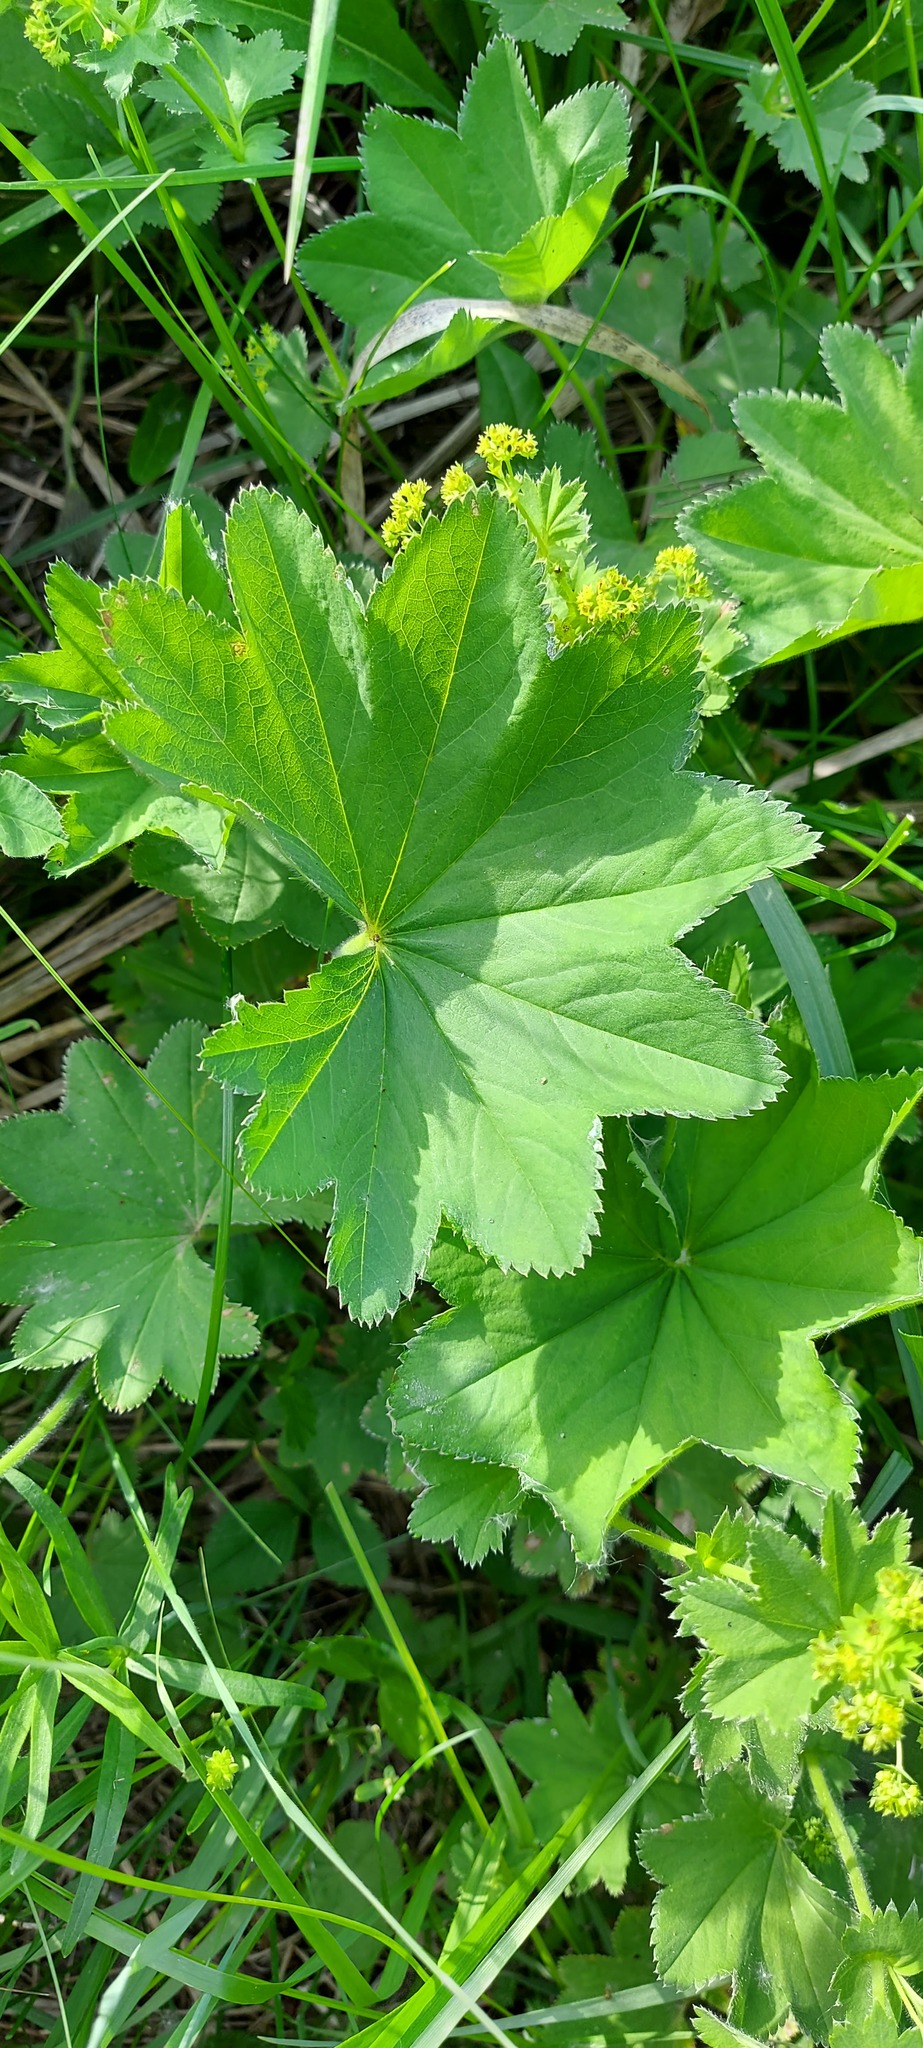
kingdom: Plantae
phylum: Tracheophyta
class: Magnoliopsida
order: Rosales
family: Rosaceae
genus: Alchemilla
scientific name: Alchemilla longipes
